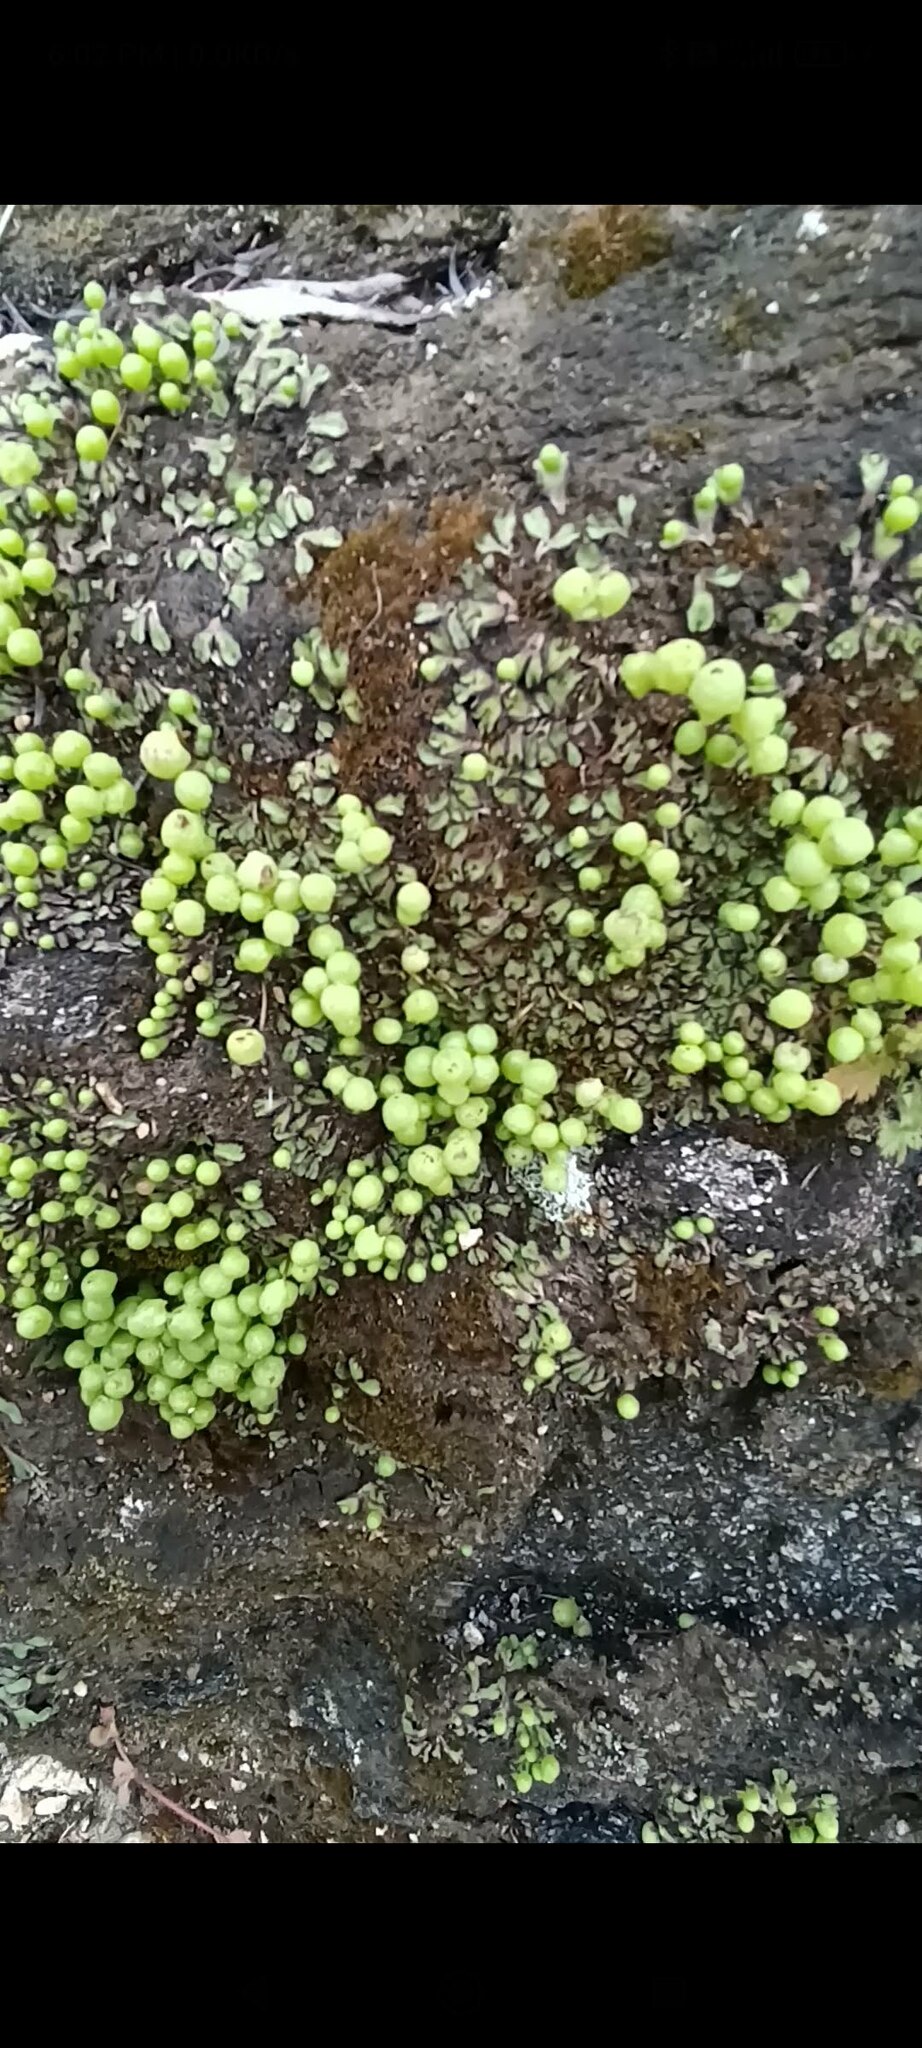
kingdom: Plantae
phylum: Marchantiophyta
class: Marchantiopsida
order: Marchantiales
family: Aytoniaceae
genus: Asterella
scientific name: Asterella palmeri
